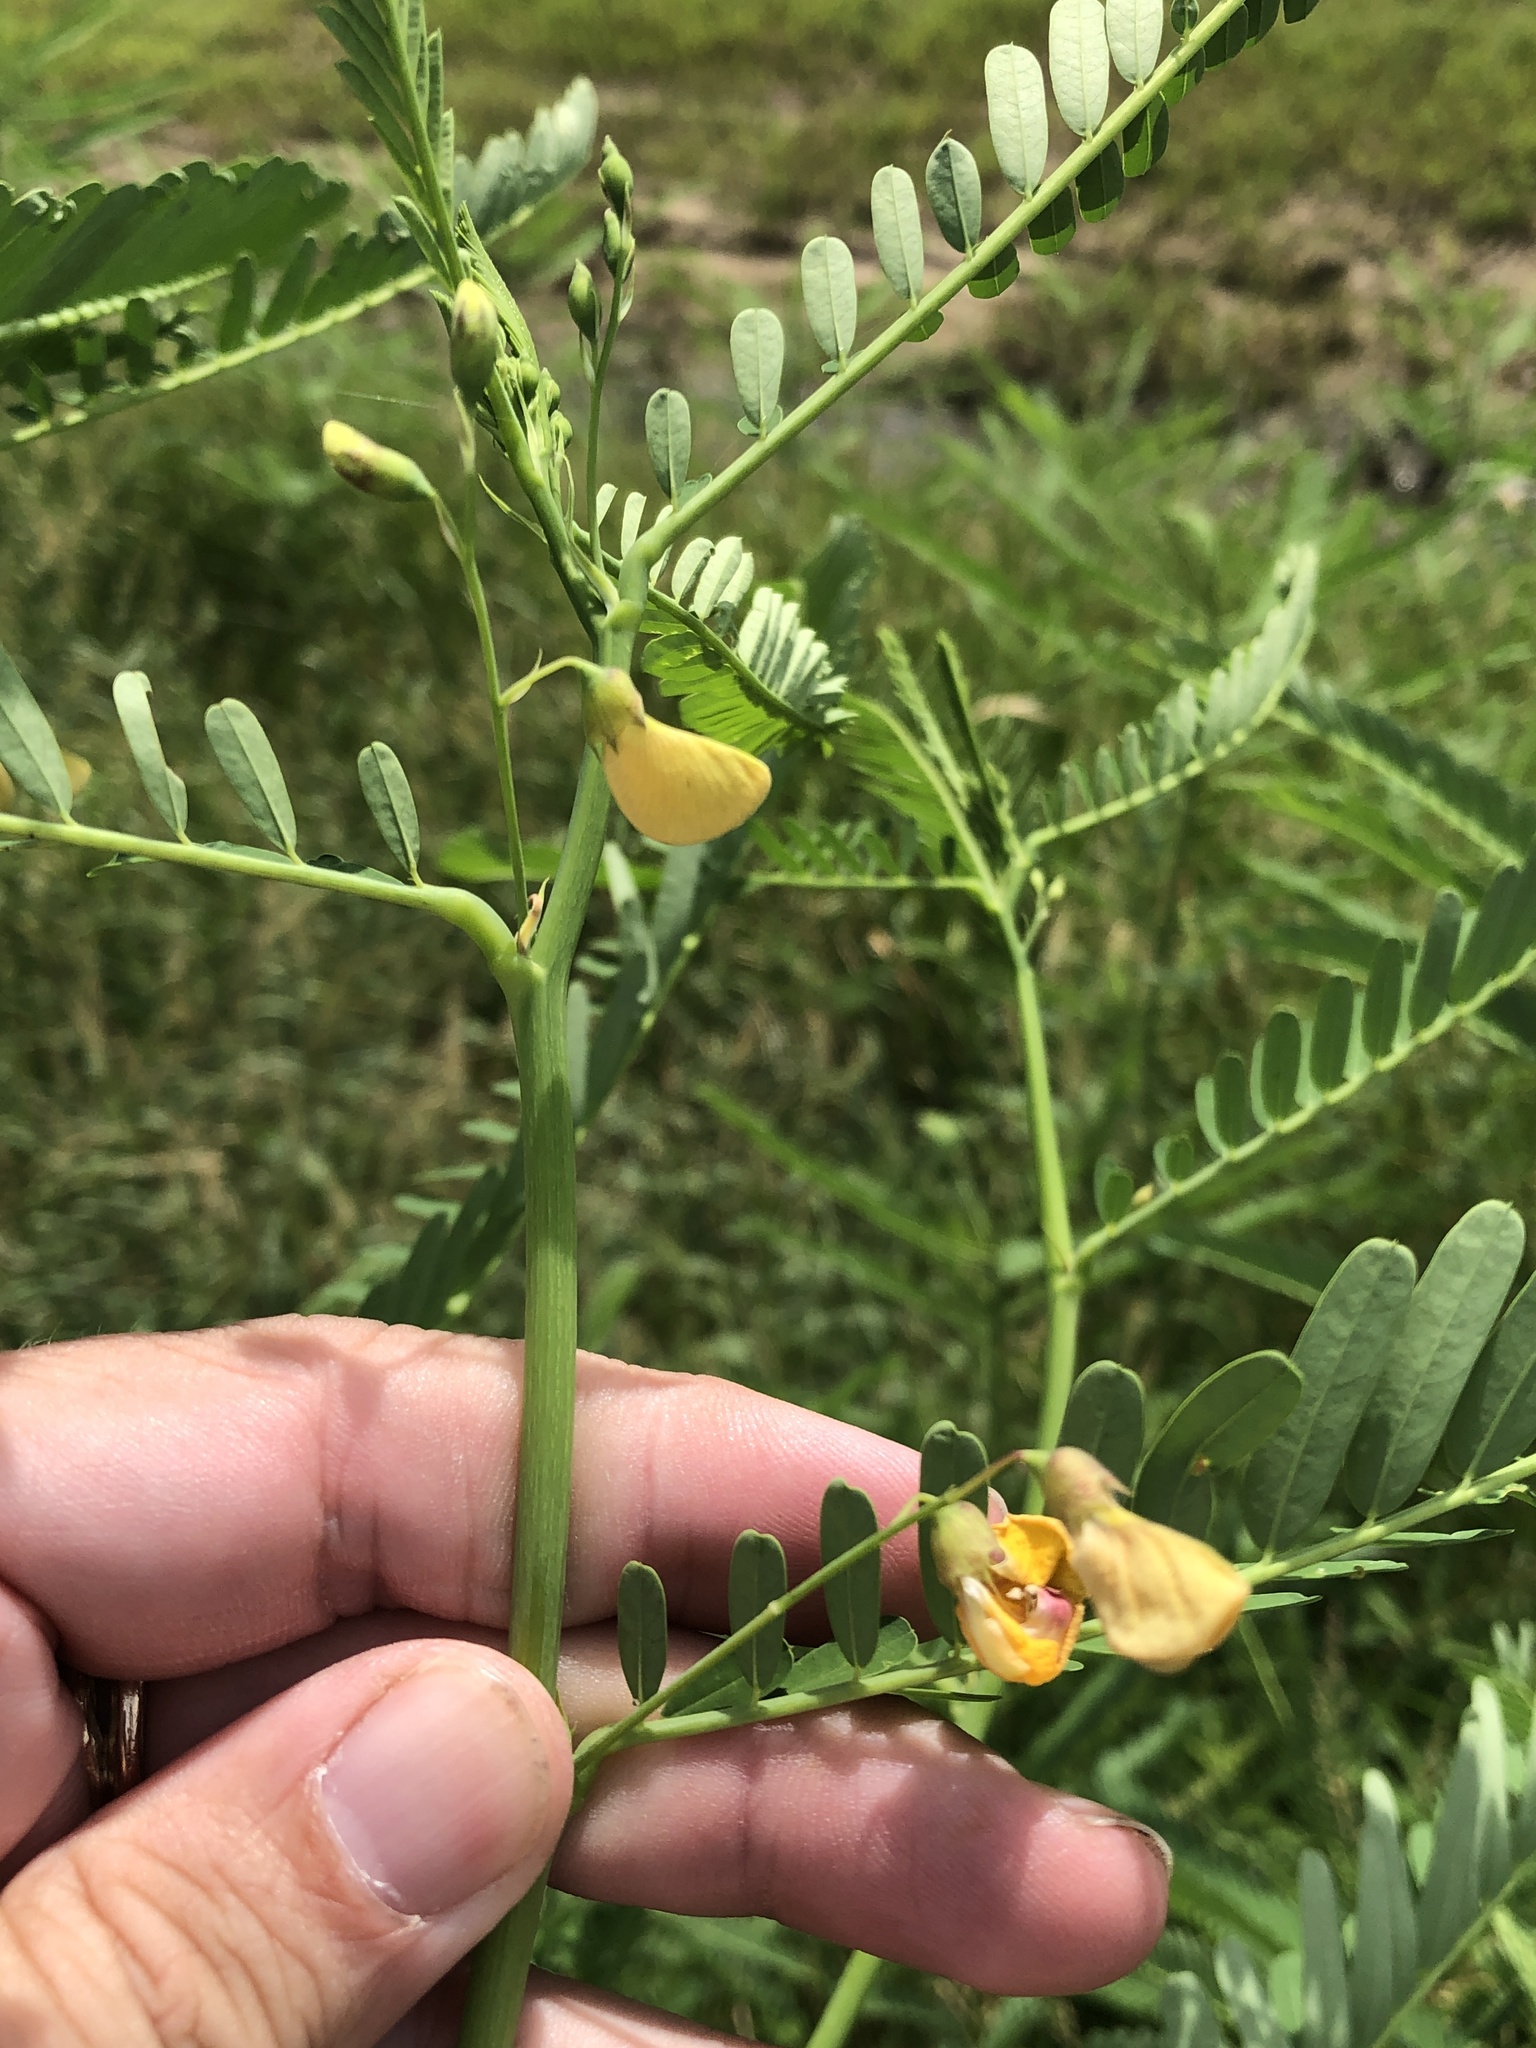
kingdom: Plantae
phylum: Tracheophyta
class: Magnoliopsida
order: Fabales
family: Fabaceae
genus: Sesbania
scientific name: Sesbania herbacea
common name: Bigpod sesbania
